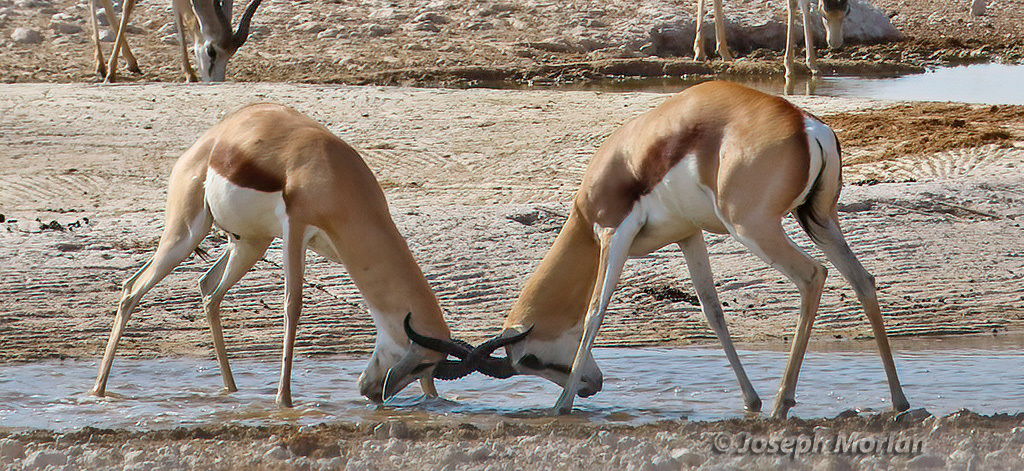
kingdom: Animalia
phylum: Chordata
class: Mammalia
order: Artiodactyla
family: Bovidae
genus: Antidorcas
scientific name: Antidorcas marsupialis
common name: Springbok
